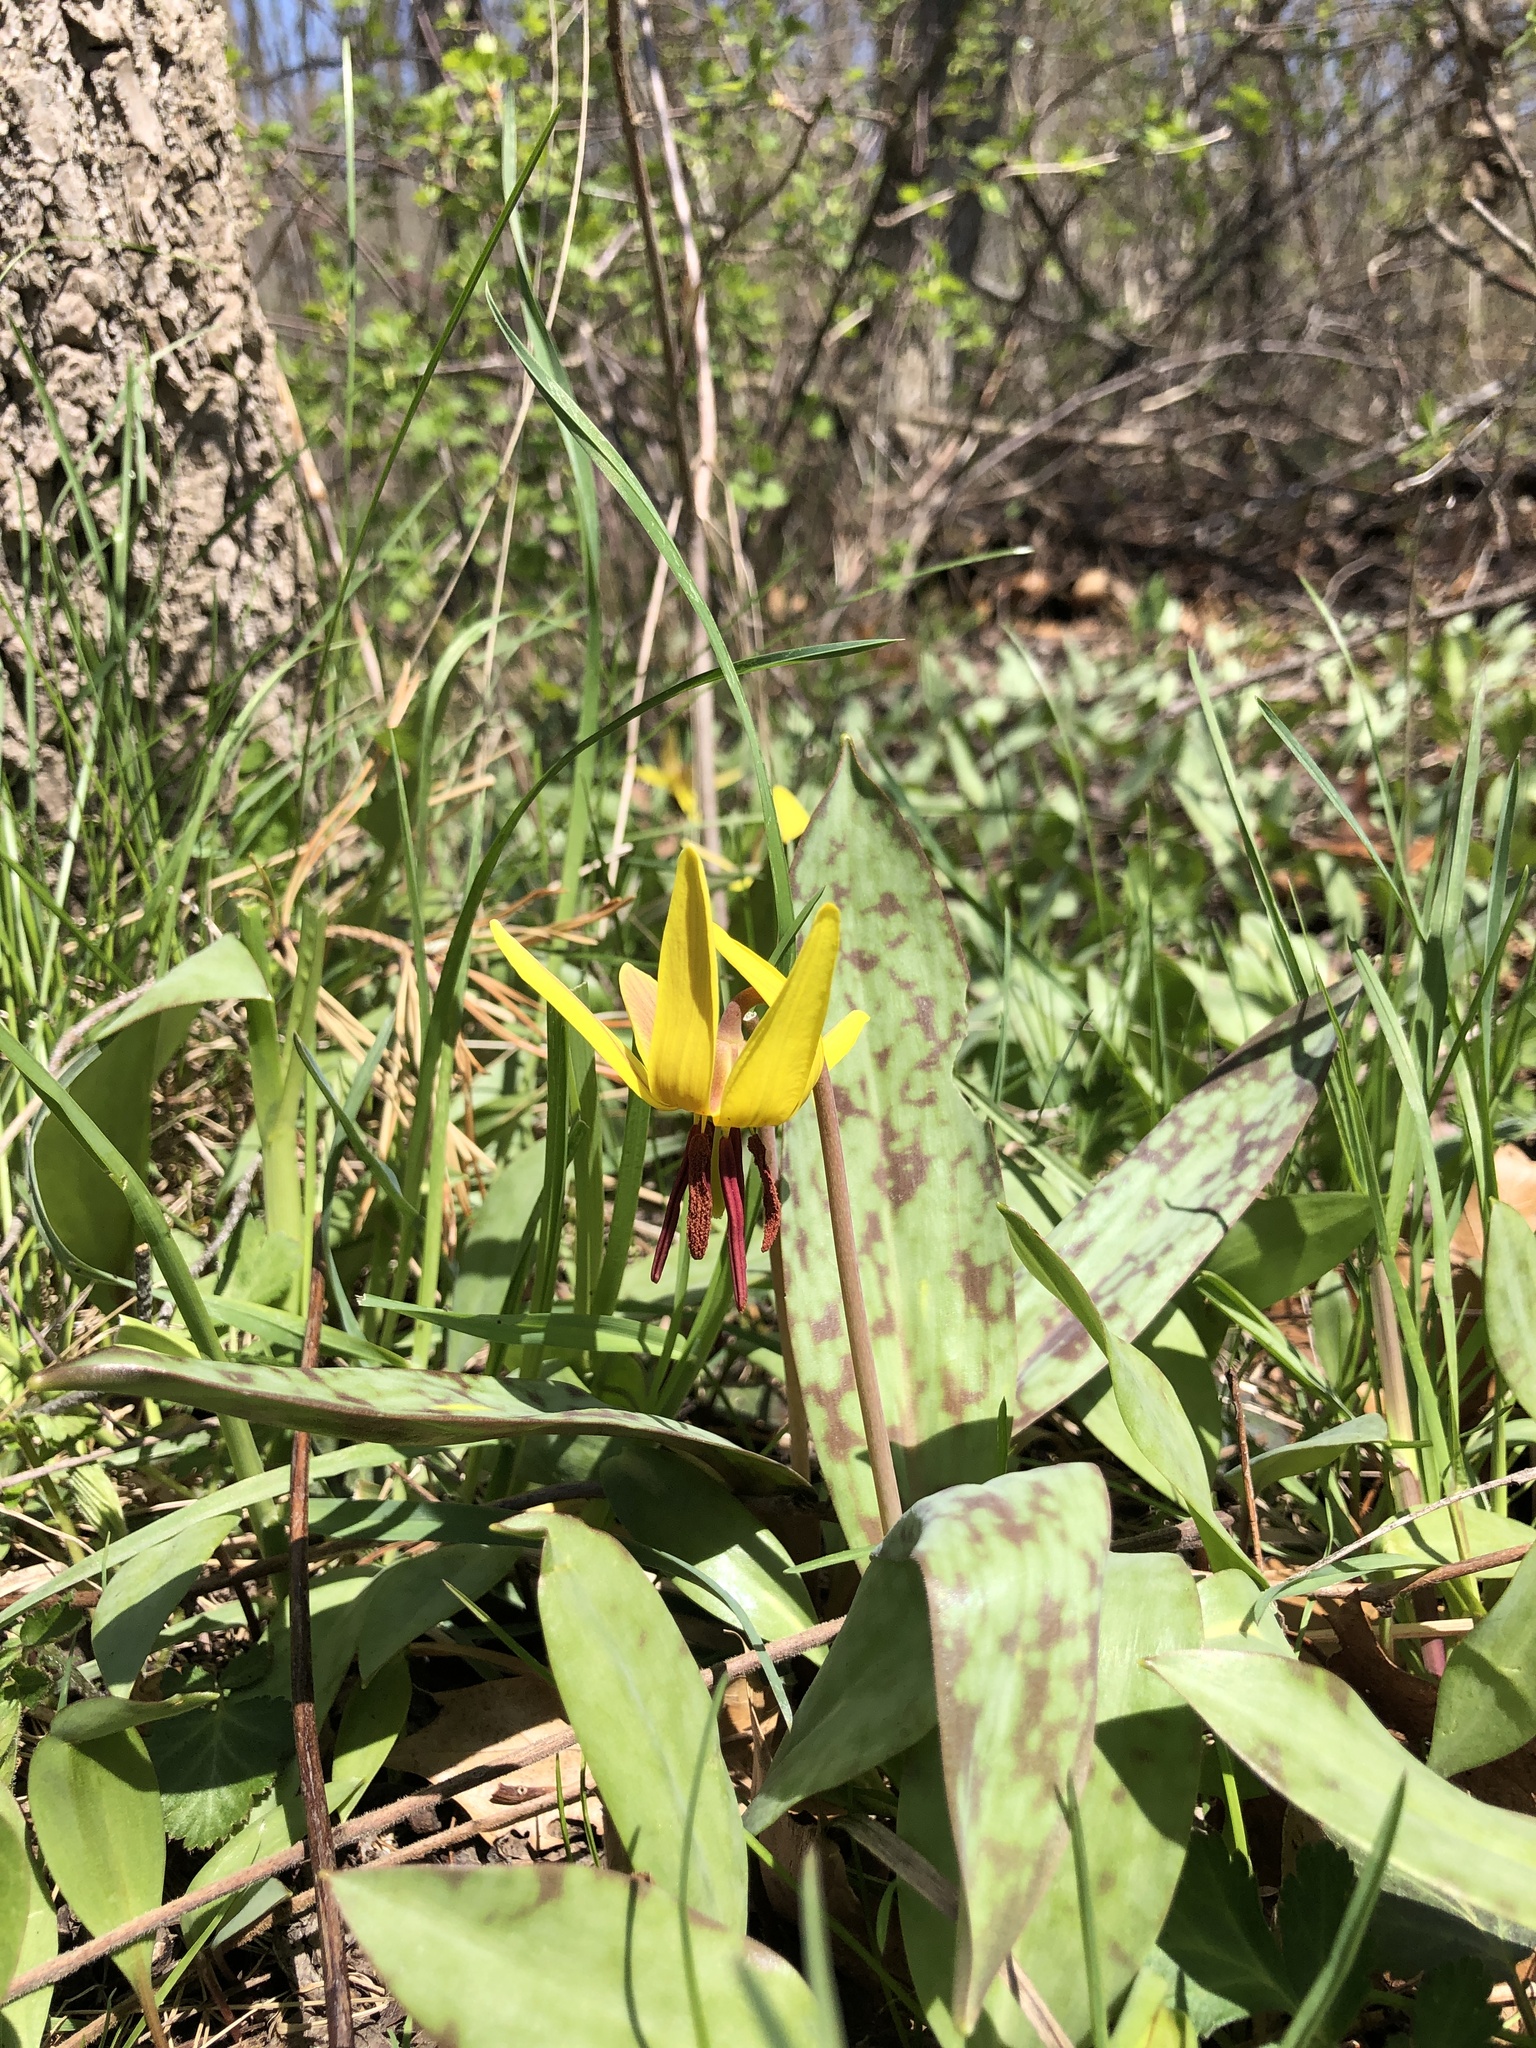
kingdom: Plantae
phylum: Tracheophyta
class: Liliopsida
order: Liliales
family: Liliaceae
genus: Erythronium
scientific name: Erythronium americanum
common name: Yellow adder's-tongue
